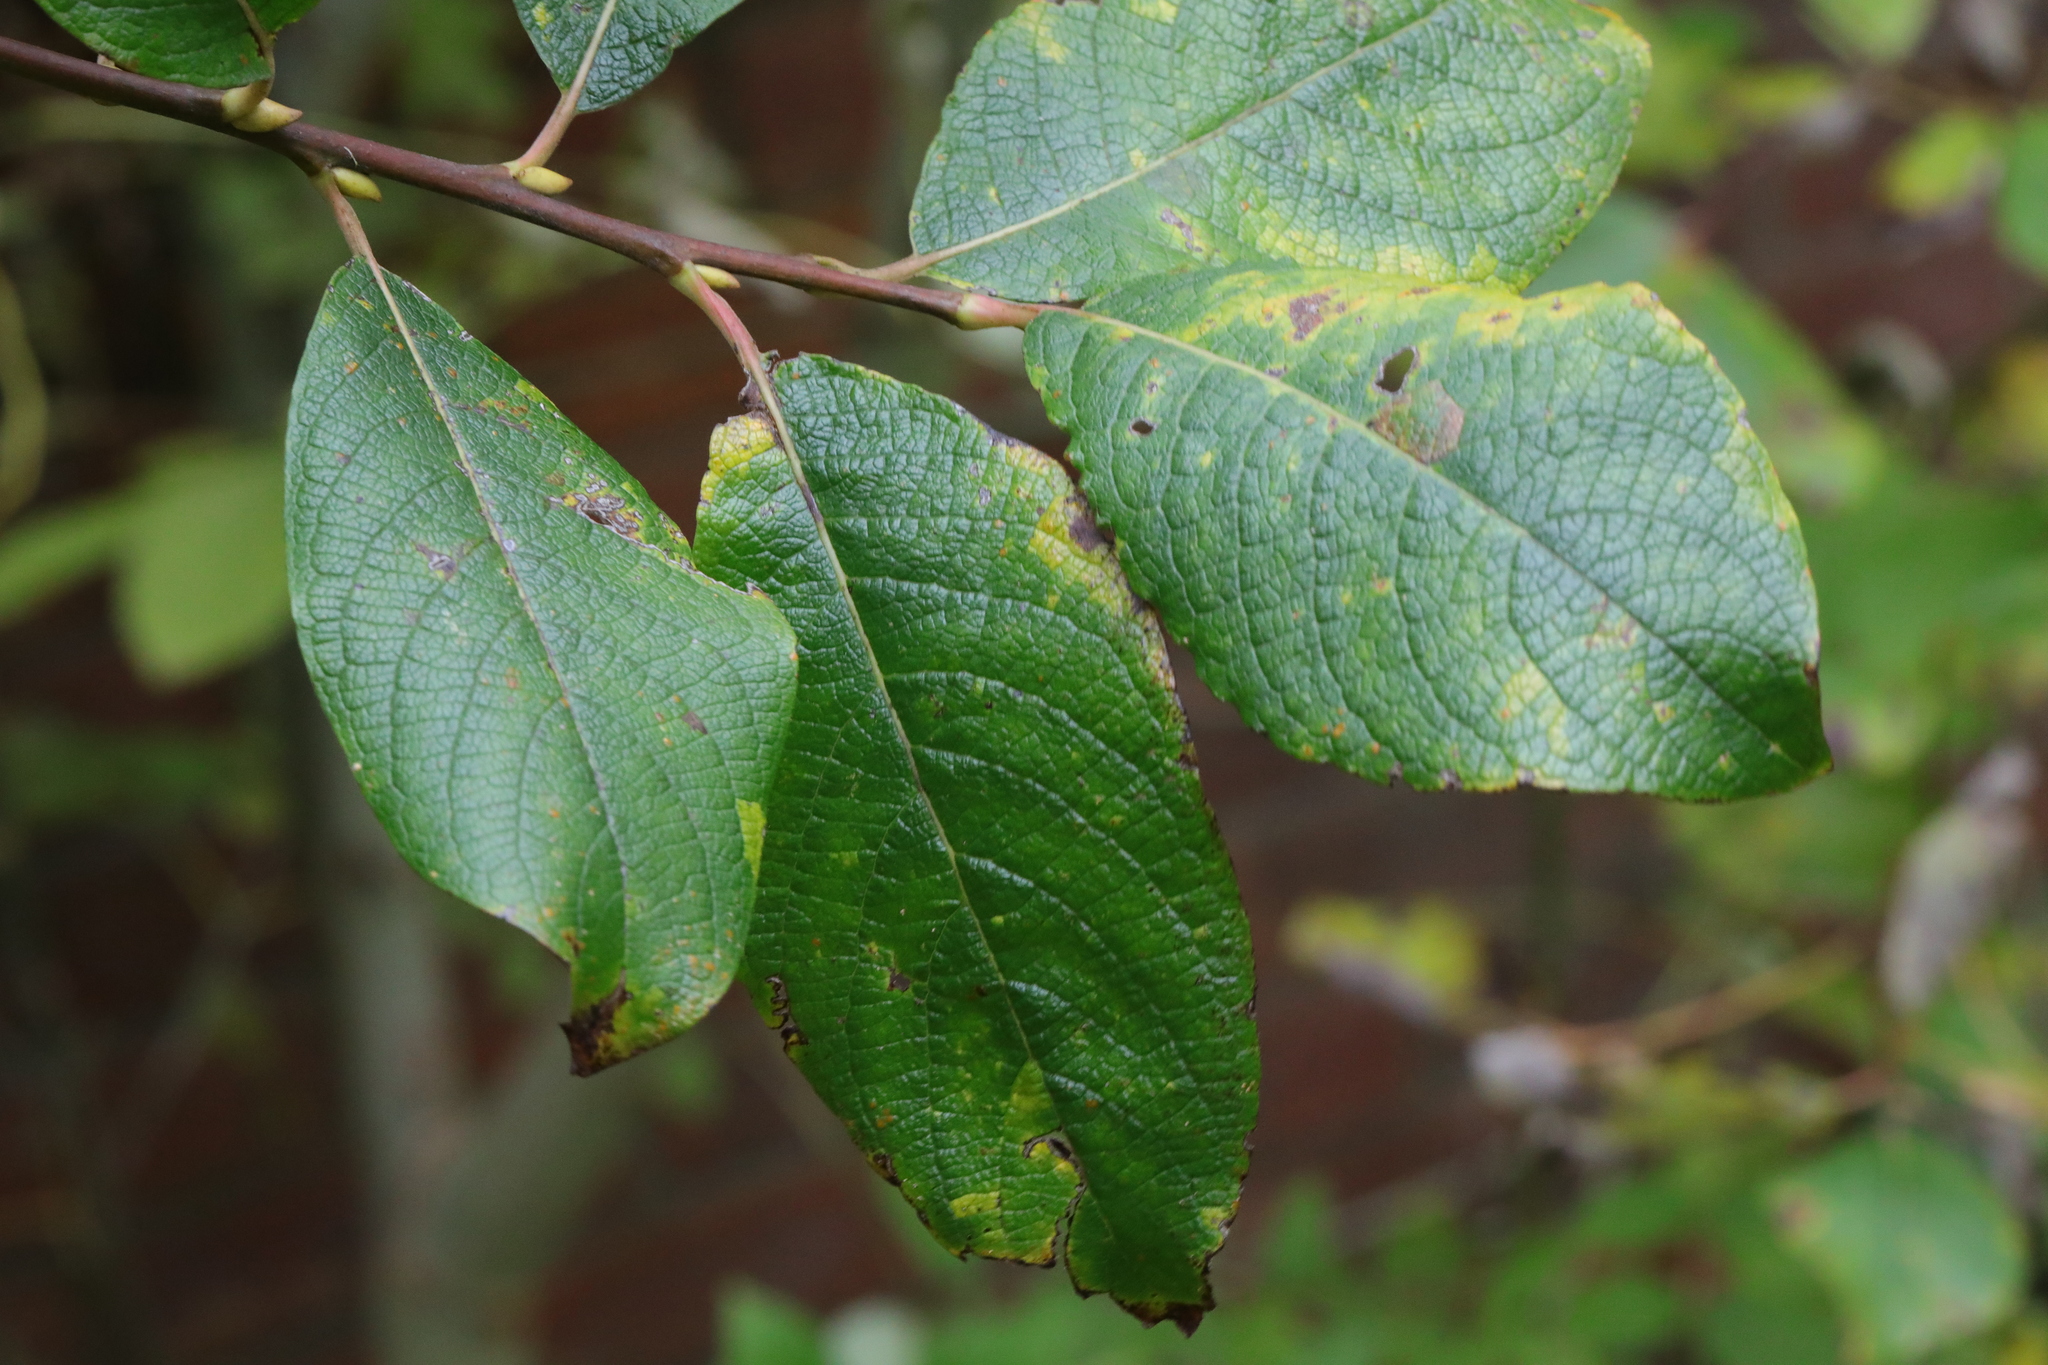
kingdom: Plantae
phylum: Tracheophyta
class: Magnoliopsida
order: Malpighiales
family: Salicaceae
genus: Salix
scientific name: Salix caprea
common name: Goat willow
